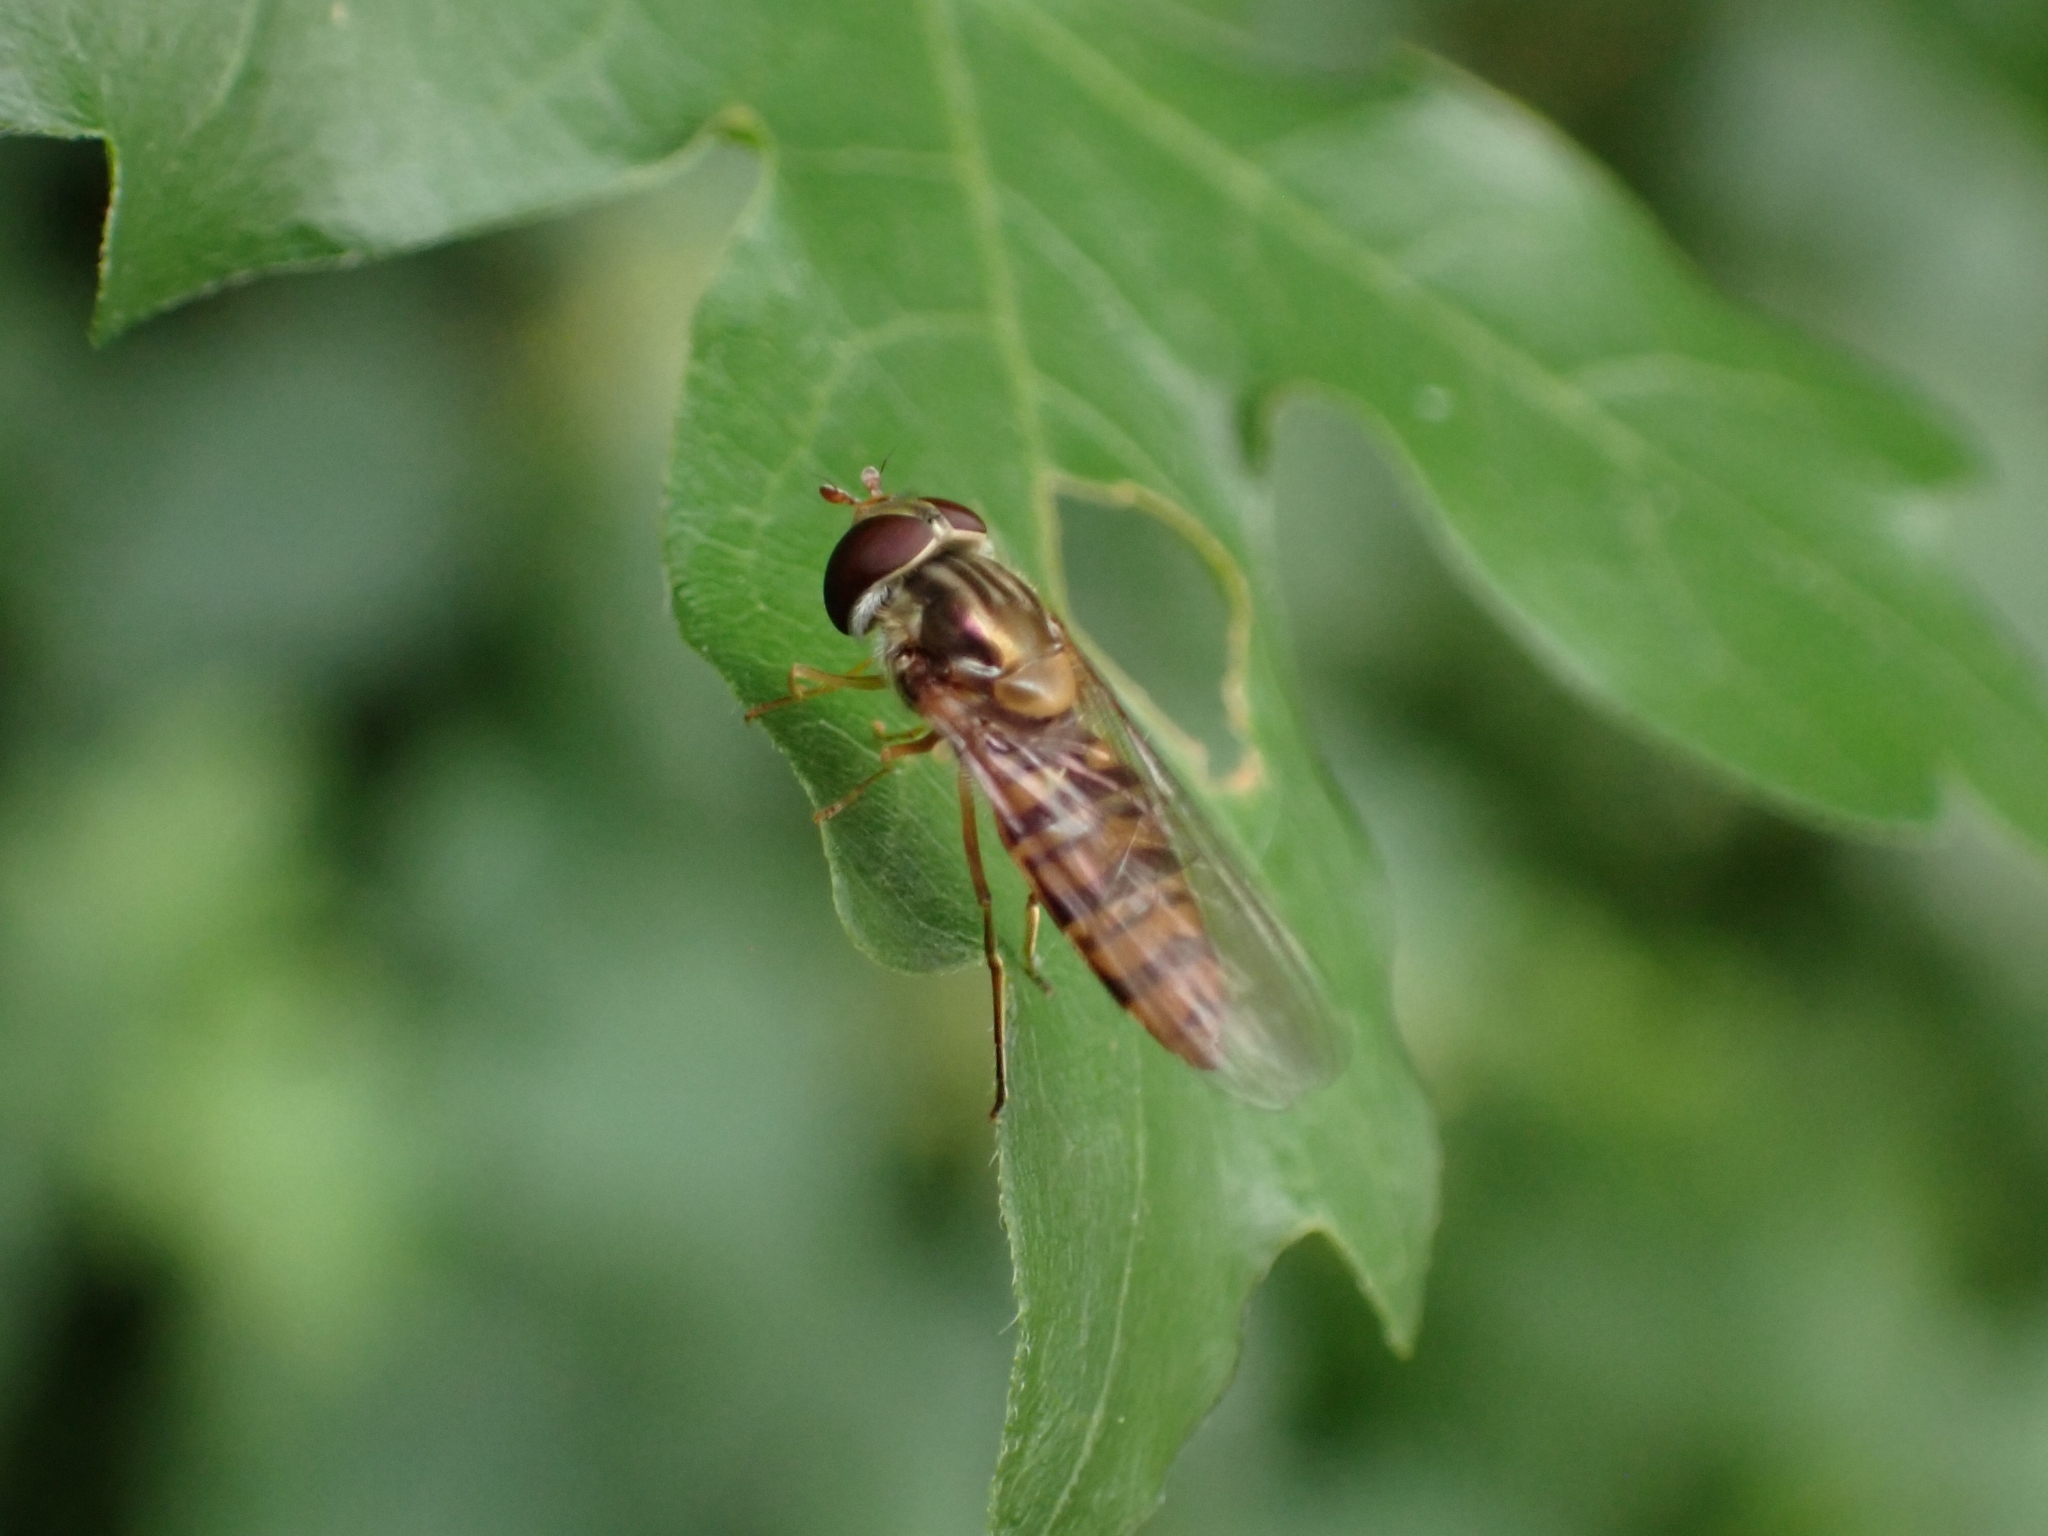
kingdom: Animalia
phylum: Arthropoda
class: Insecta
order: Diptera
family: Syrphidae
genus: Episyrphus
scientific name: Episyrphus balteatus
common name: Marmalade hoverfly
